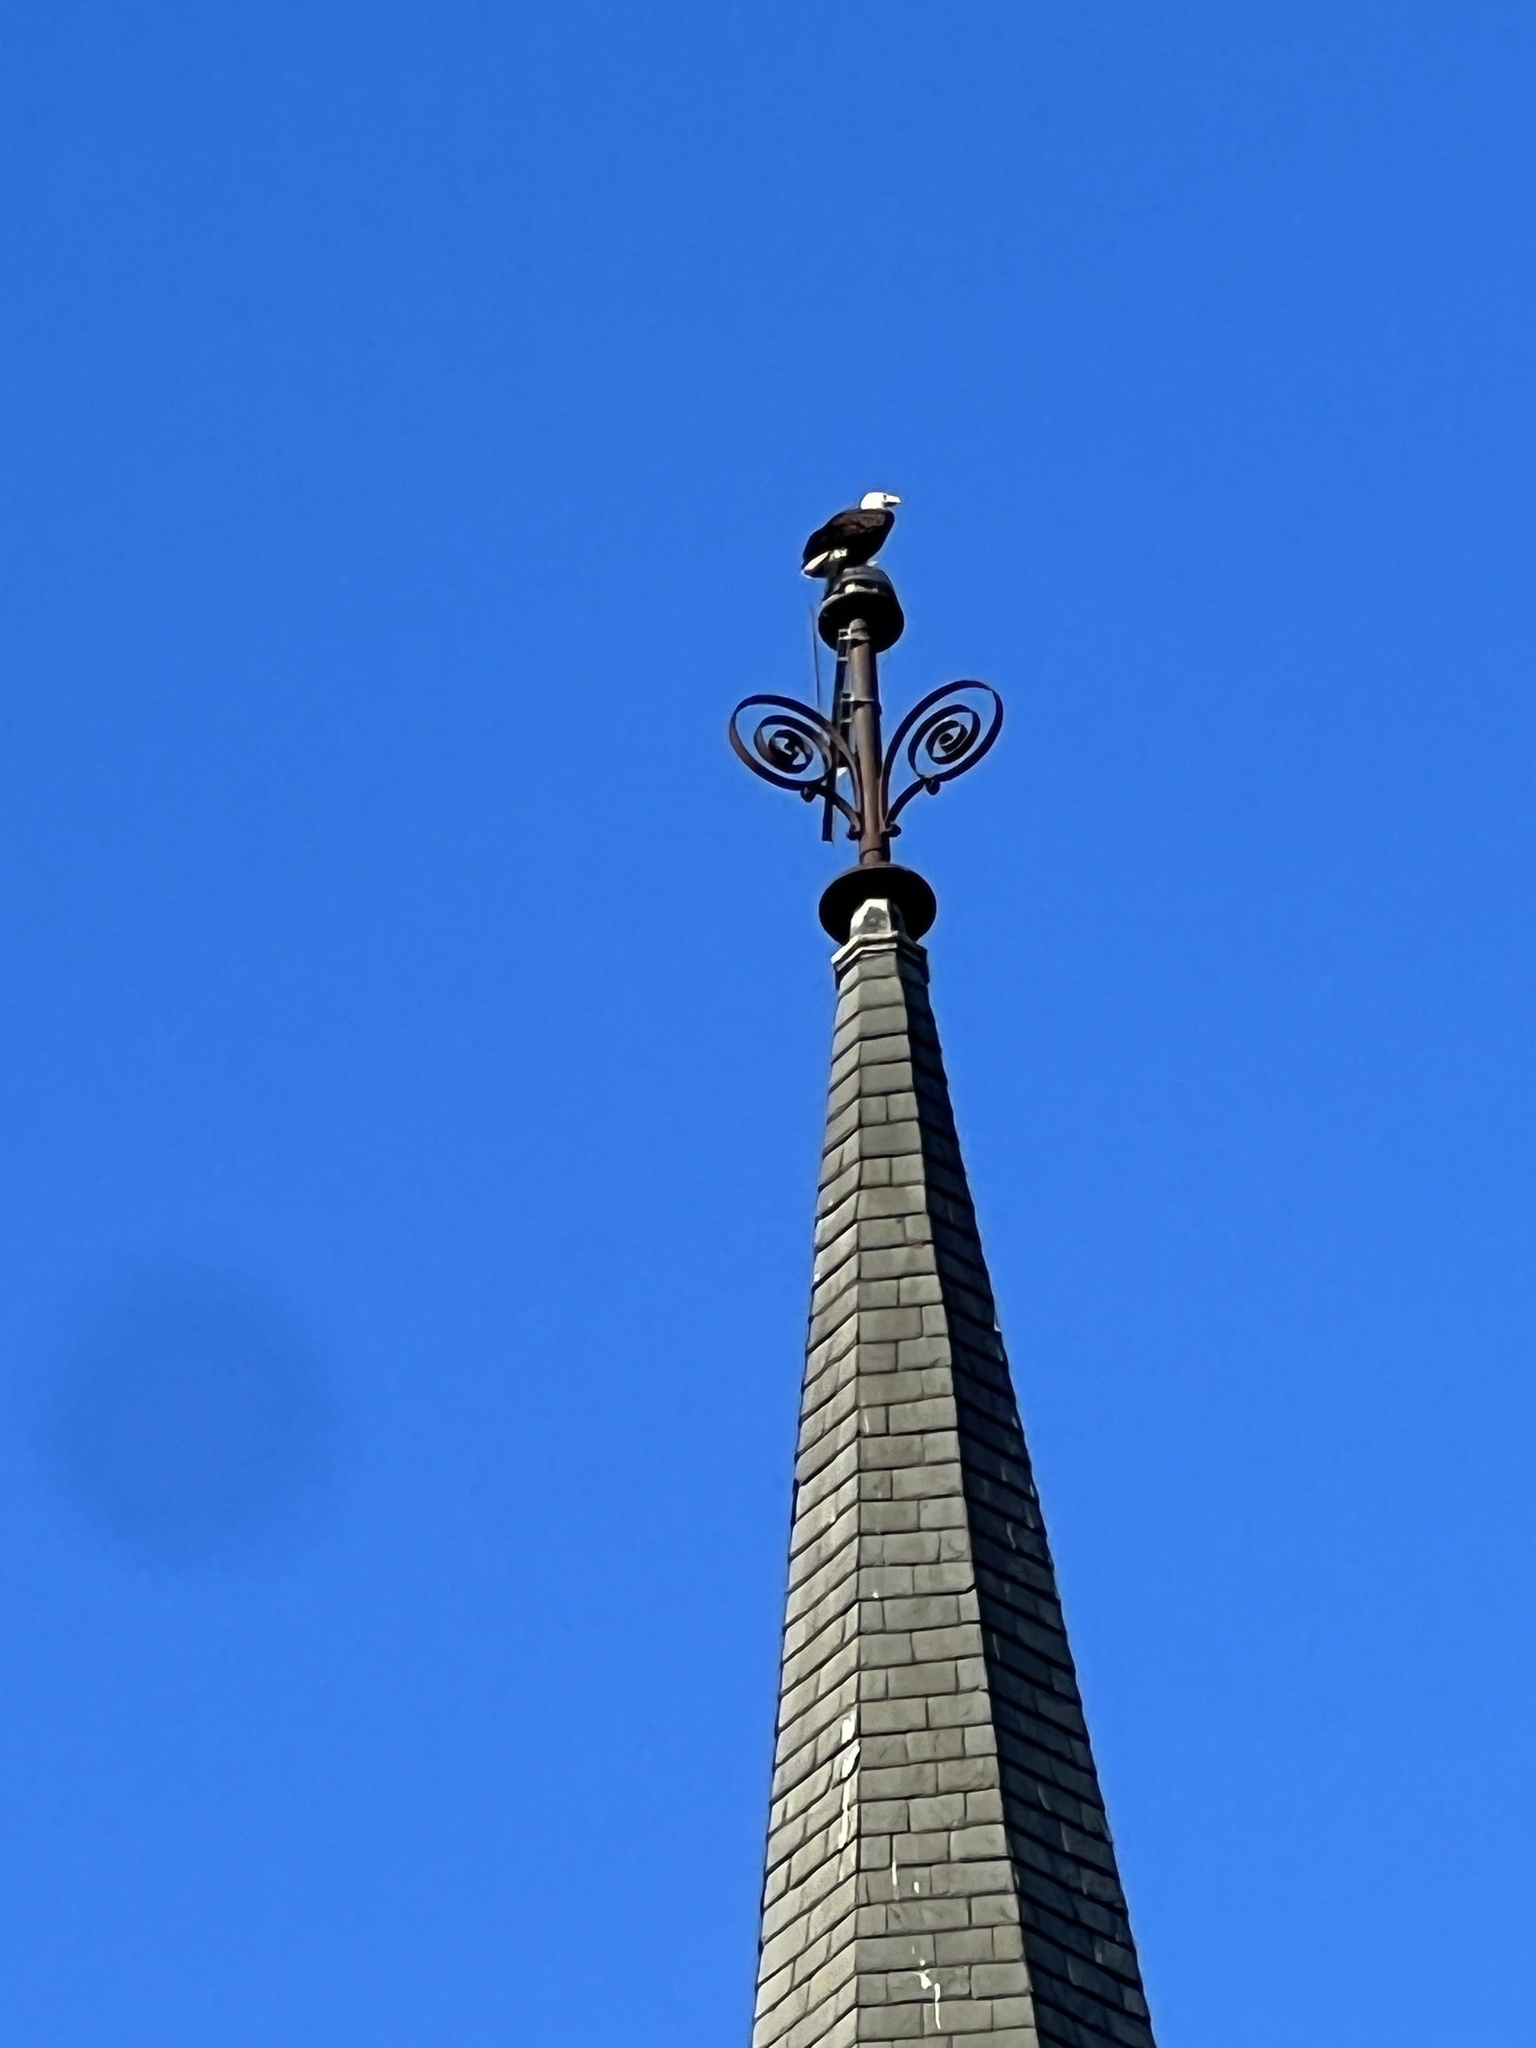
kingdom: Animalia
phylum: Chordata
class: Aves
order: Accipitriformes
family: Accipitridae
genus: Haliaeetus
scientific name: Haliaeetus leucocephalus
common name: Bald eagle
